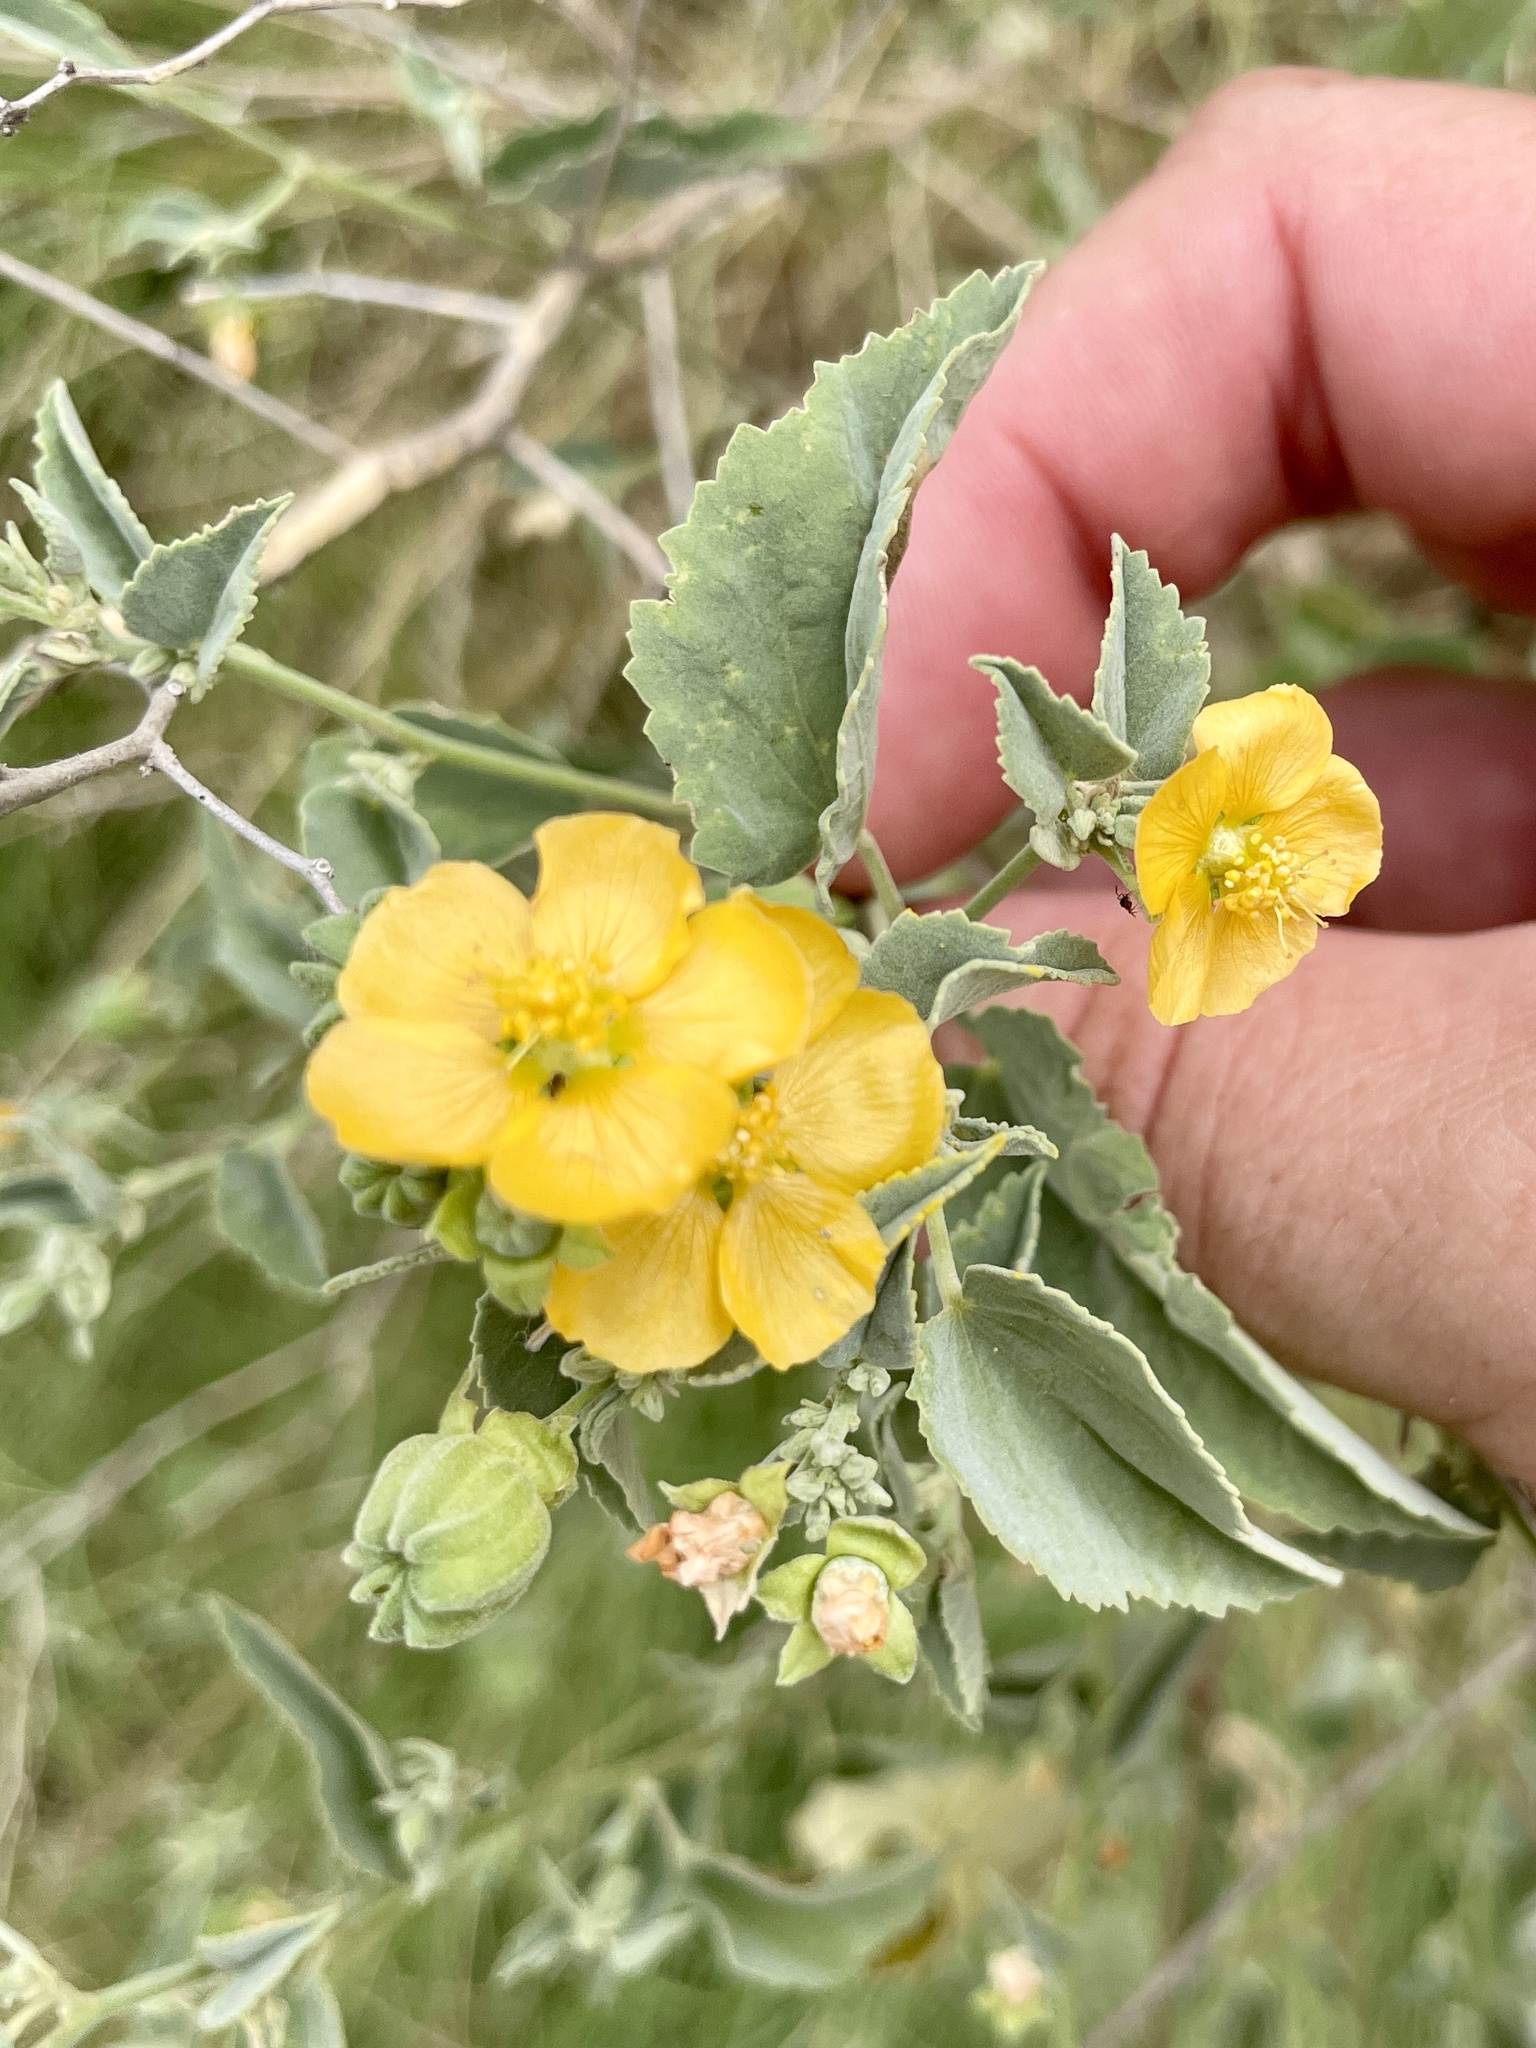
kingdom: Plantae
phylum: Tracheophyta
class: Magnoliopsida
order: Malvales
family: Malvaceae
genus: Abutilon
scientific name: Abutilon fruticosum
